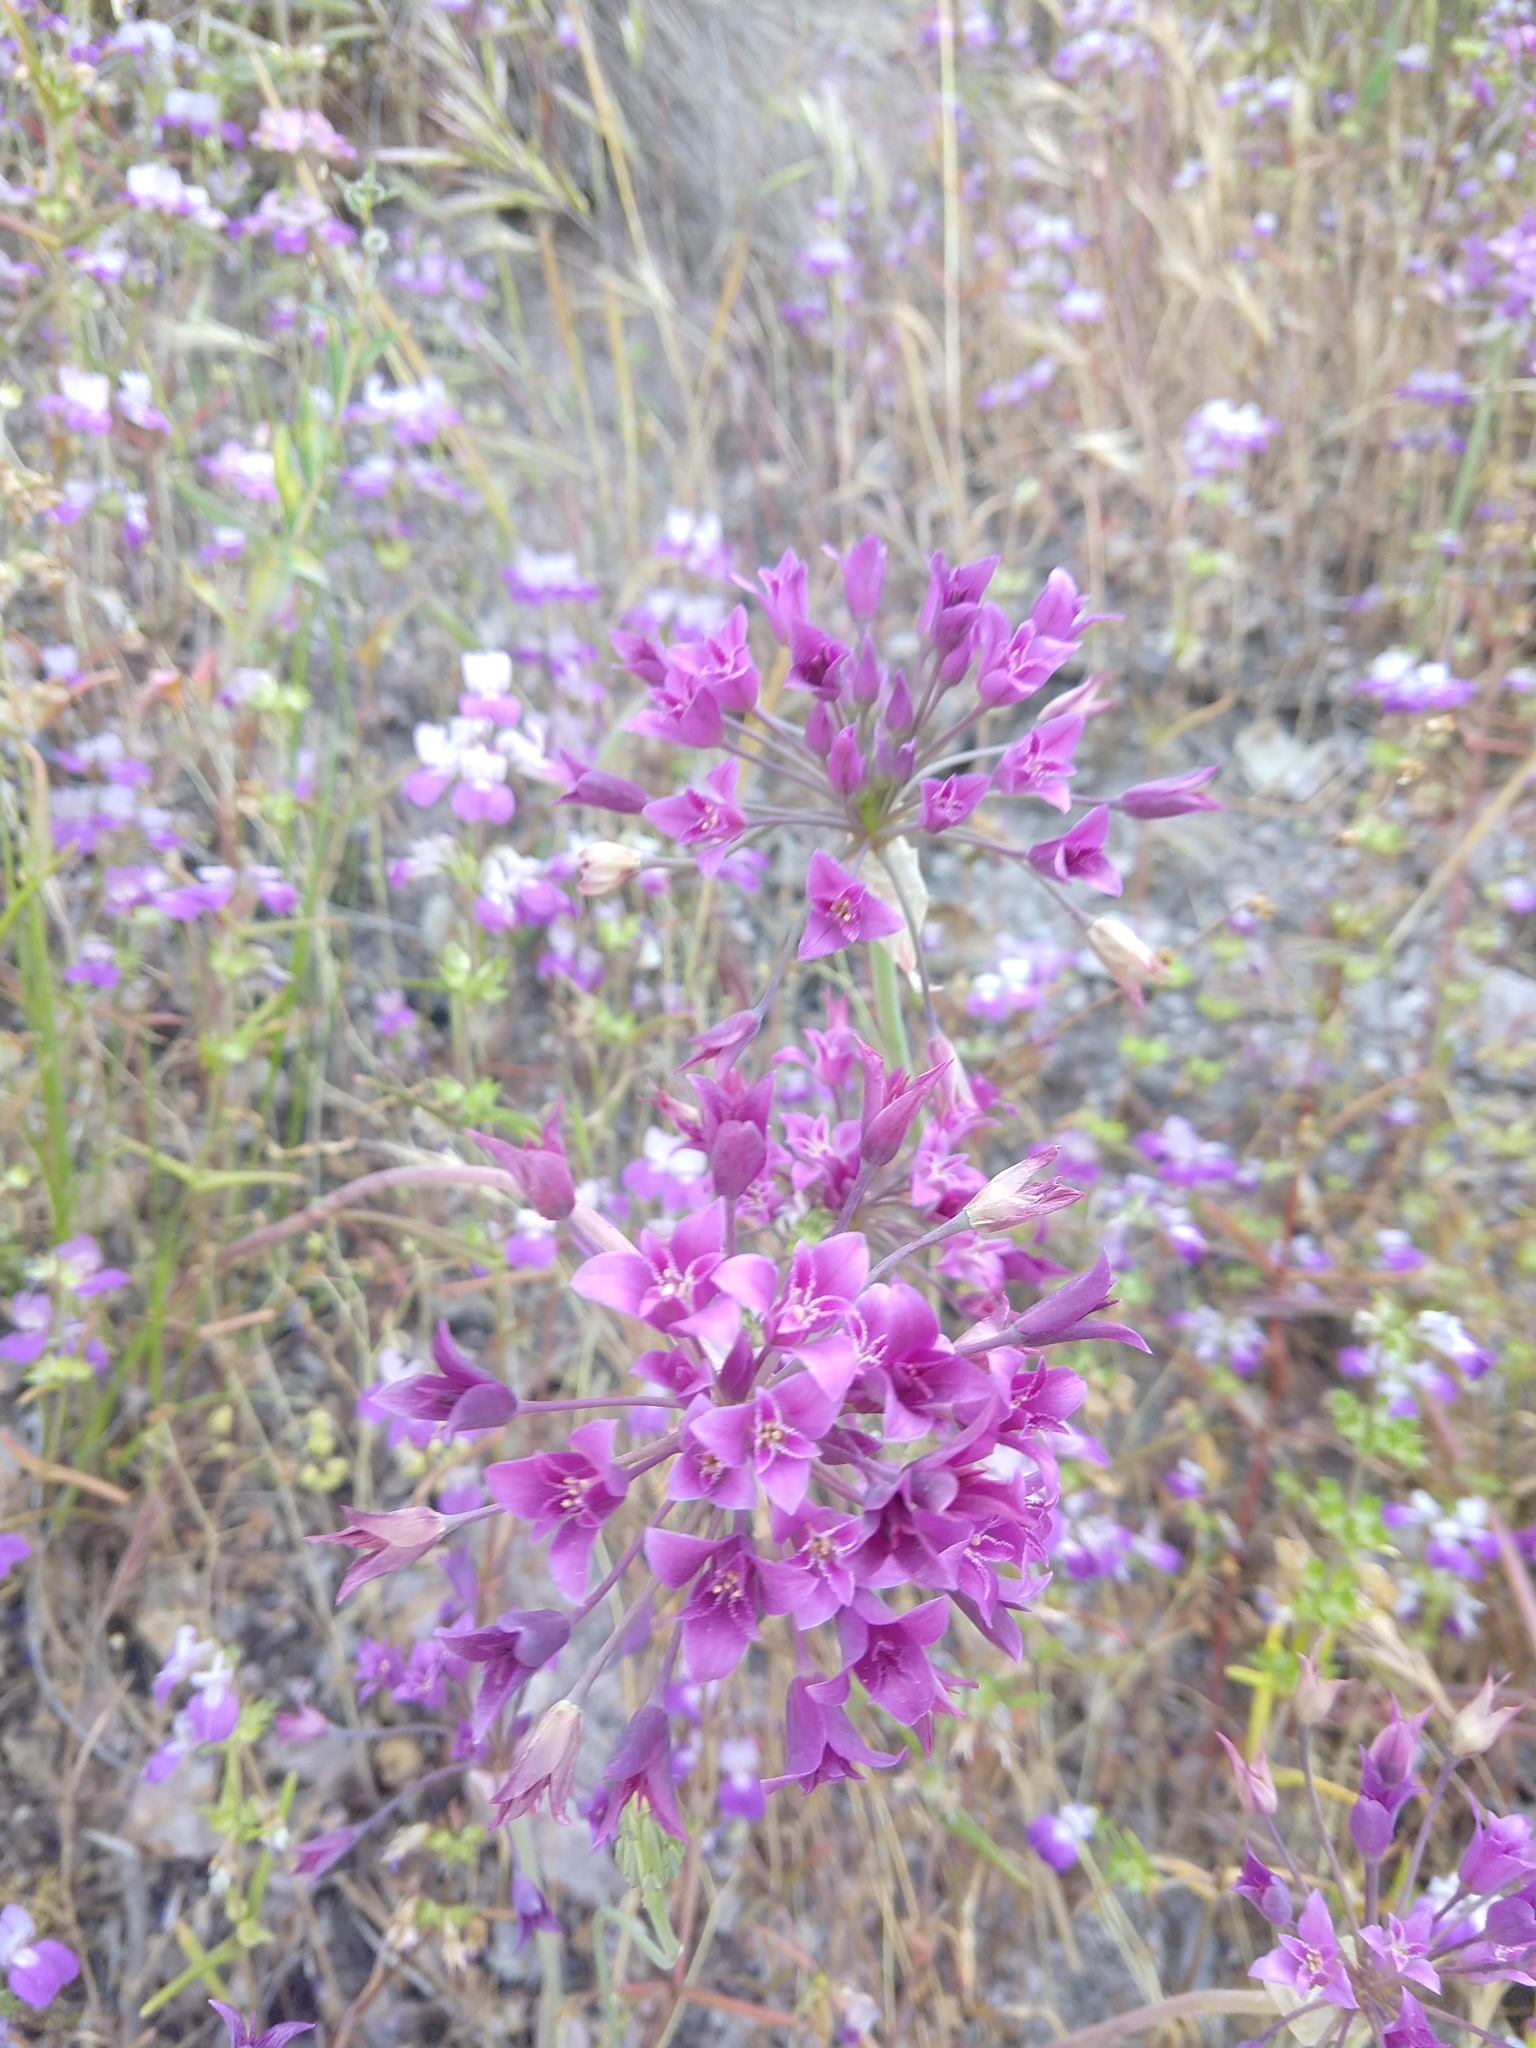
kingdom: Plantae
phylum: Tracheophyta
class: Liliopsida
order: Asparagales
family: Amaryllidaceae
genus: Allium
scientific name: Allium crispum
